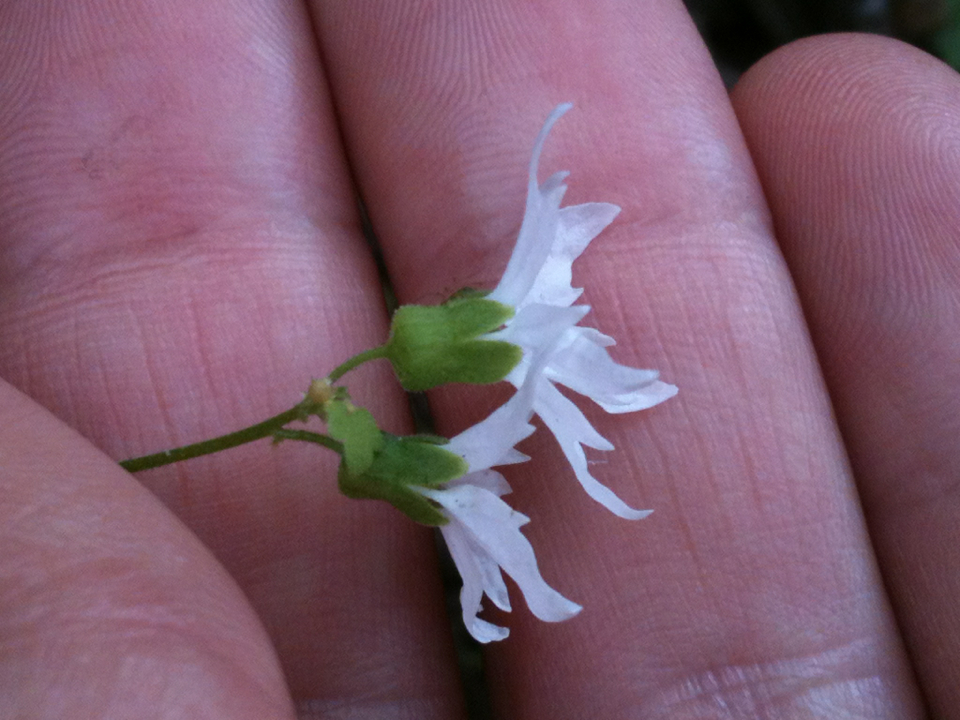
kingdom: Plantae
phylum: Tracheophyta
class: Magnoliopsida
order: Saxifragales
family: Saxifragaceae
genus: Lithophragma
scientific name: Lithophragma heterophyllum
